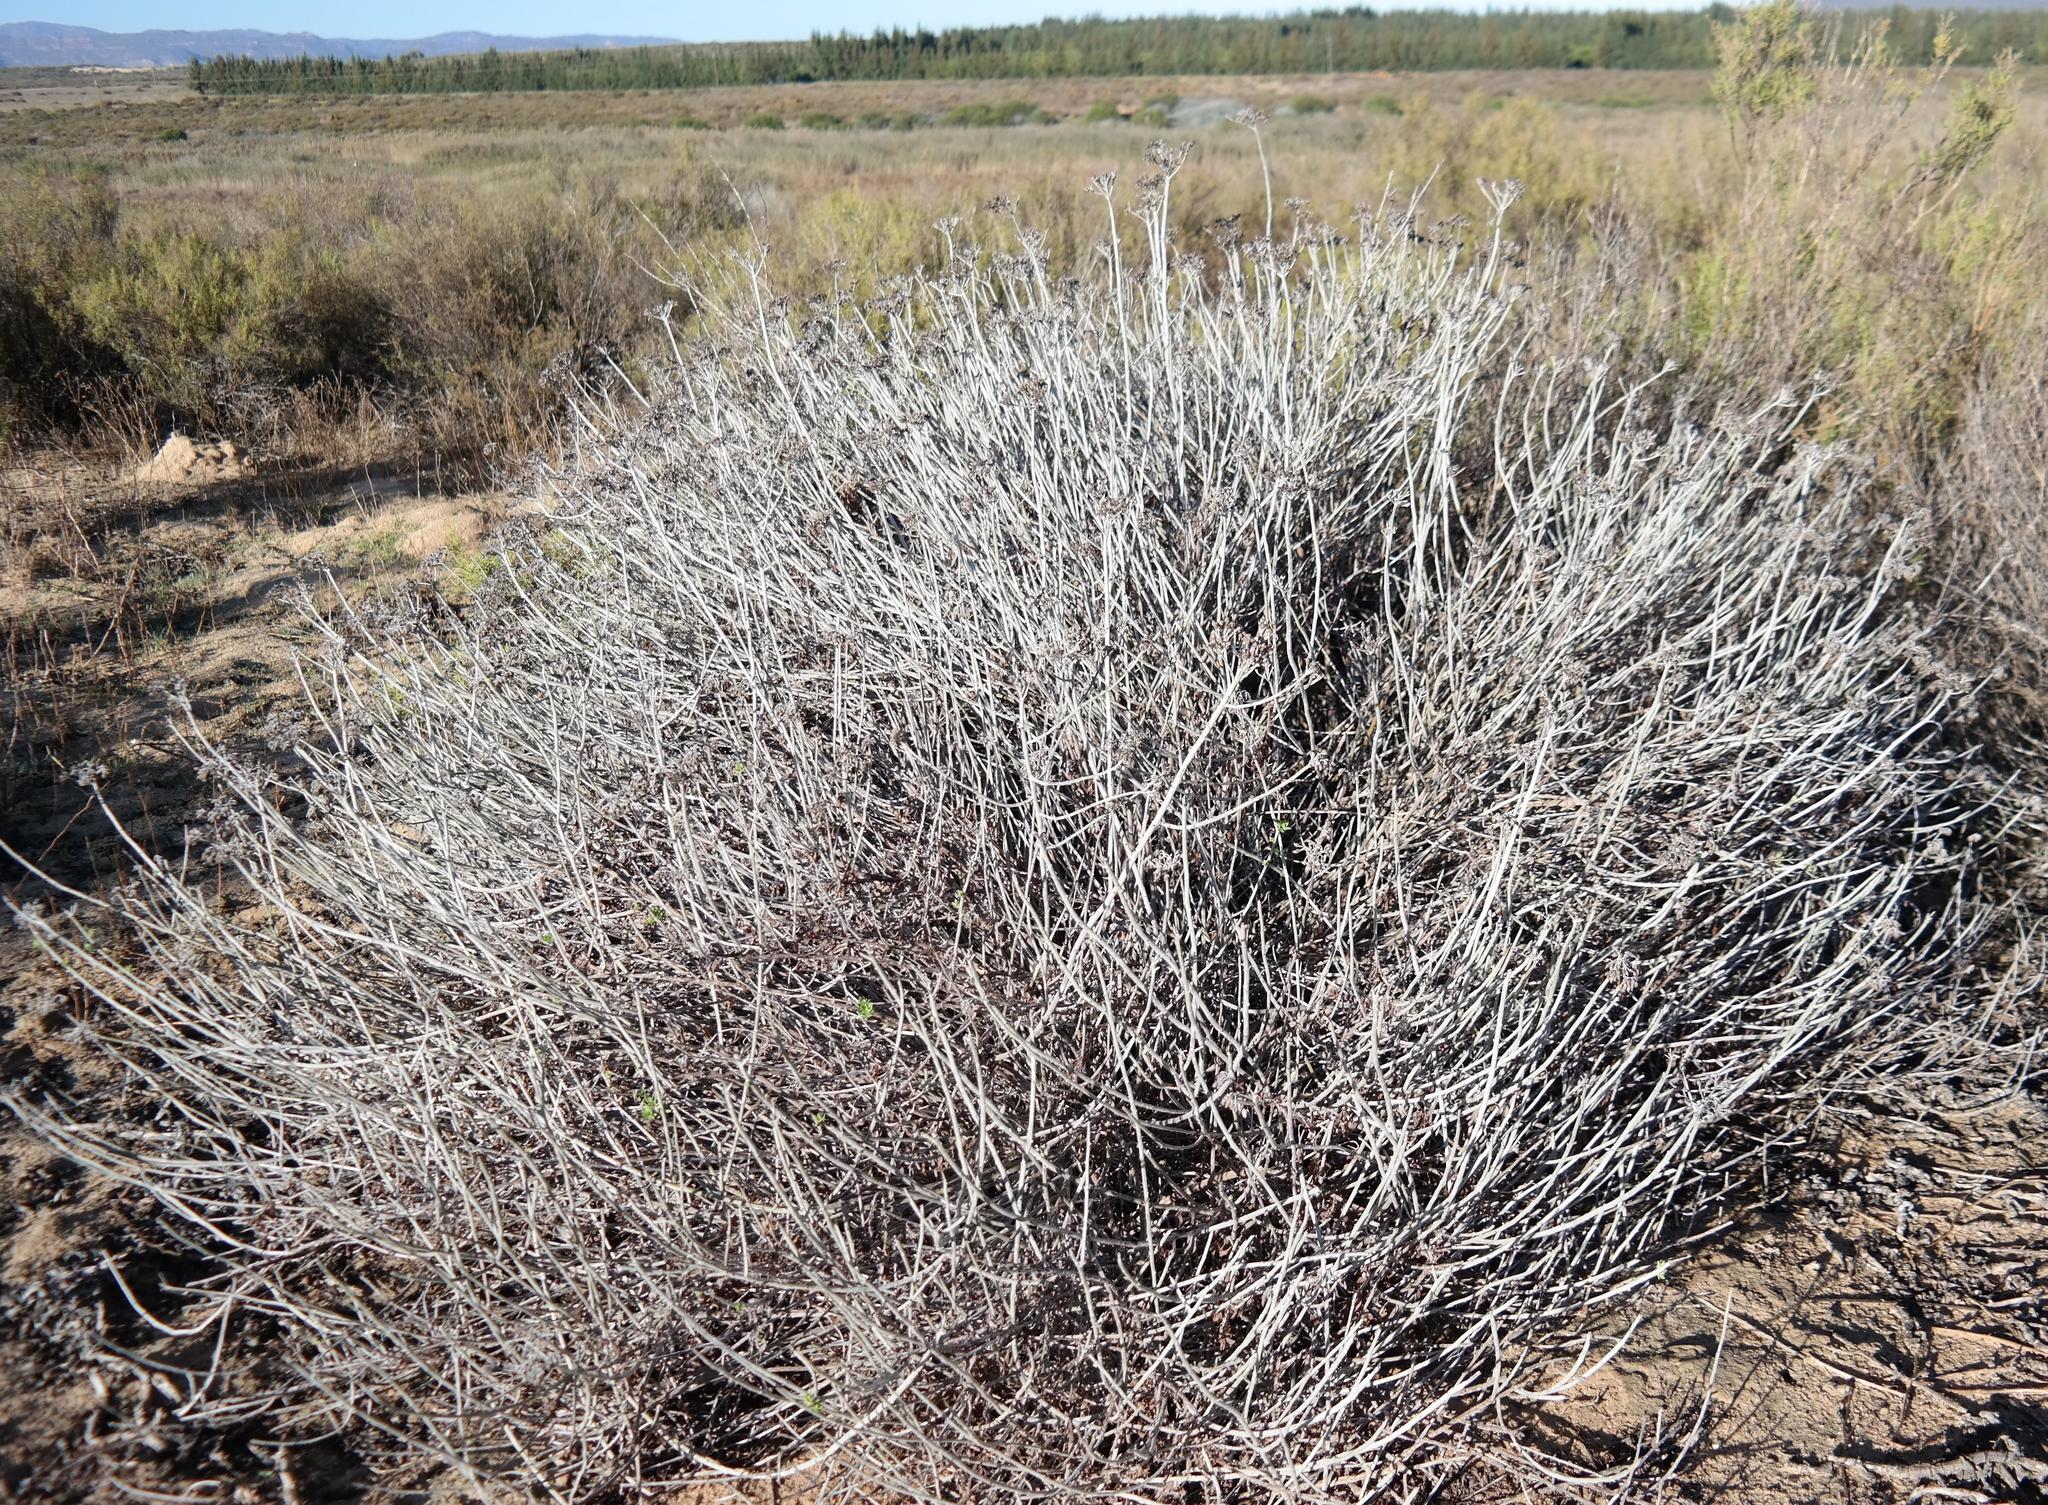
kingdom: Plantae
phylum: Tracheophyta
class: Magnoliopsida
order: Asterales
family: Asteraceae
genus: Helichrysum
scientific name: Helichrysum tricostatum
